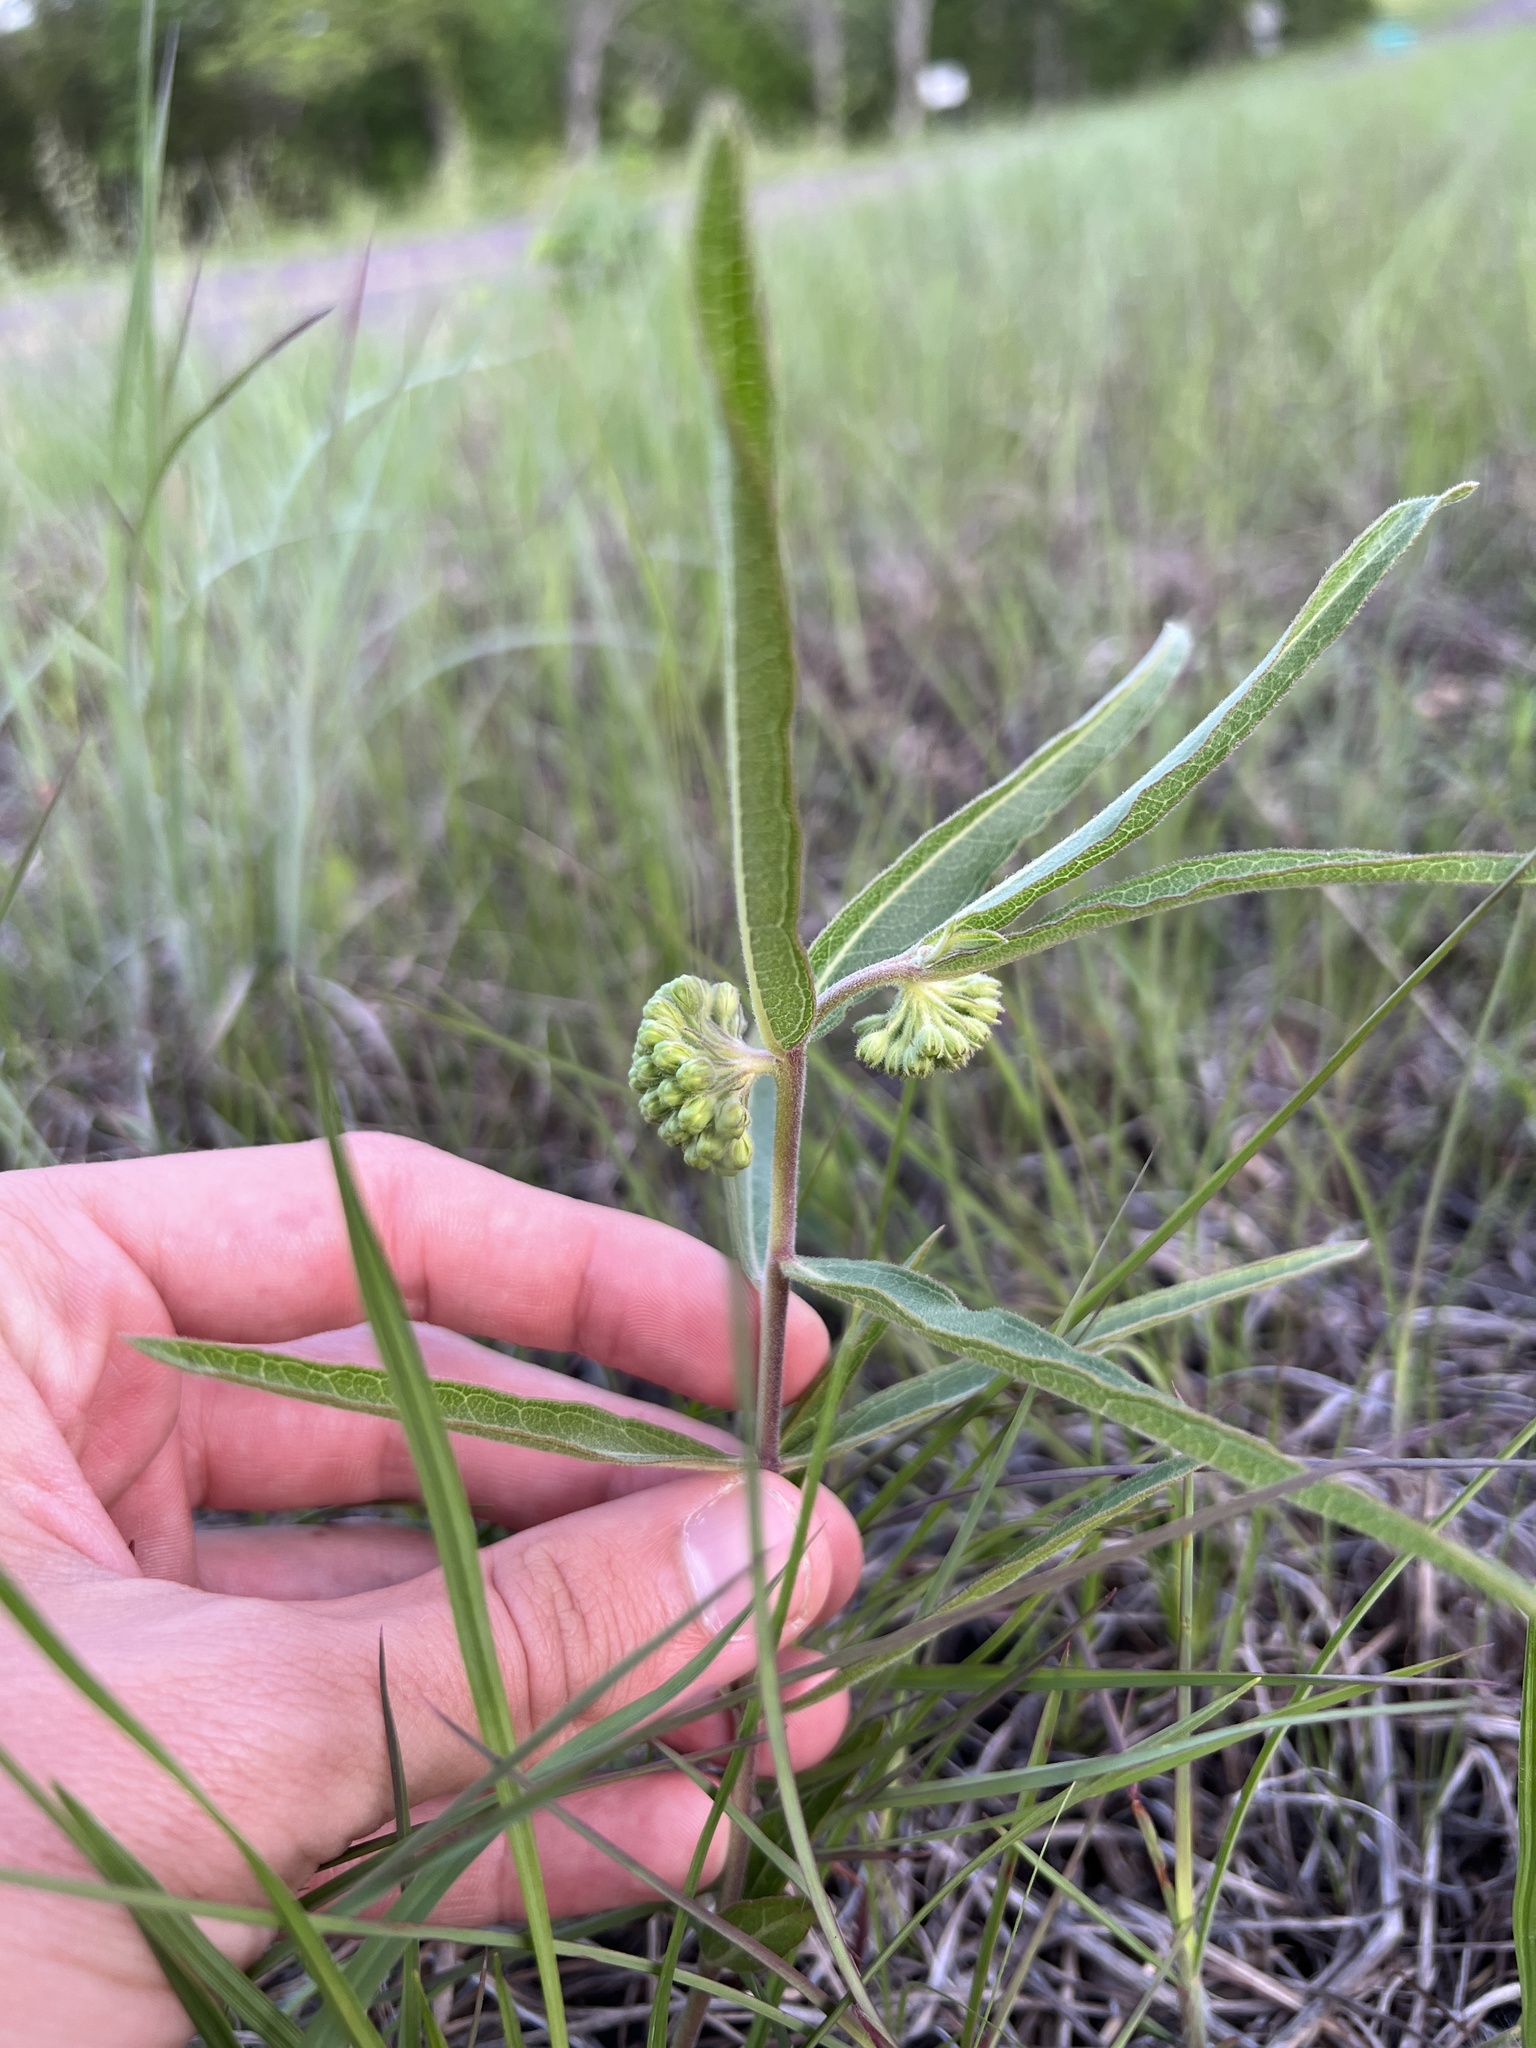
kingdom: Plantae
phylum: Tracheophyta
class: Magnoliopsida
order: Gentianales
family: Apocynaceae
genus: Asclepias
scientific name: Asclepias viridiflora
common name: Green comet milkweed
